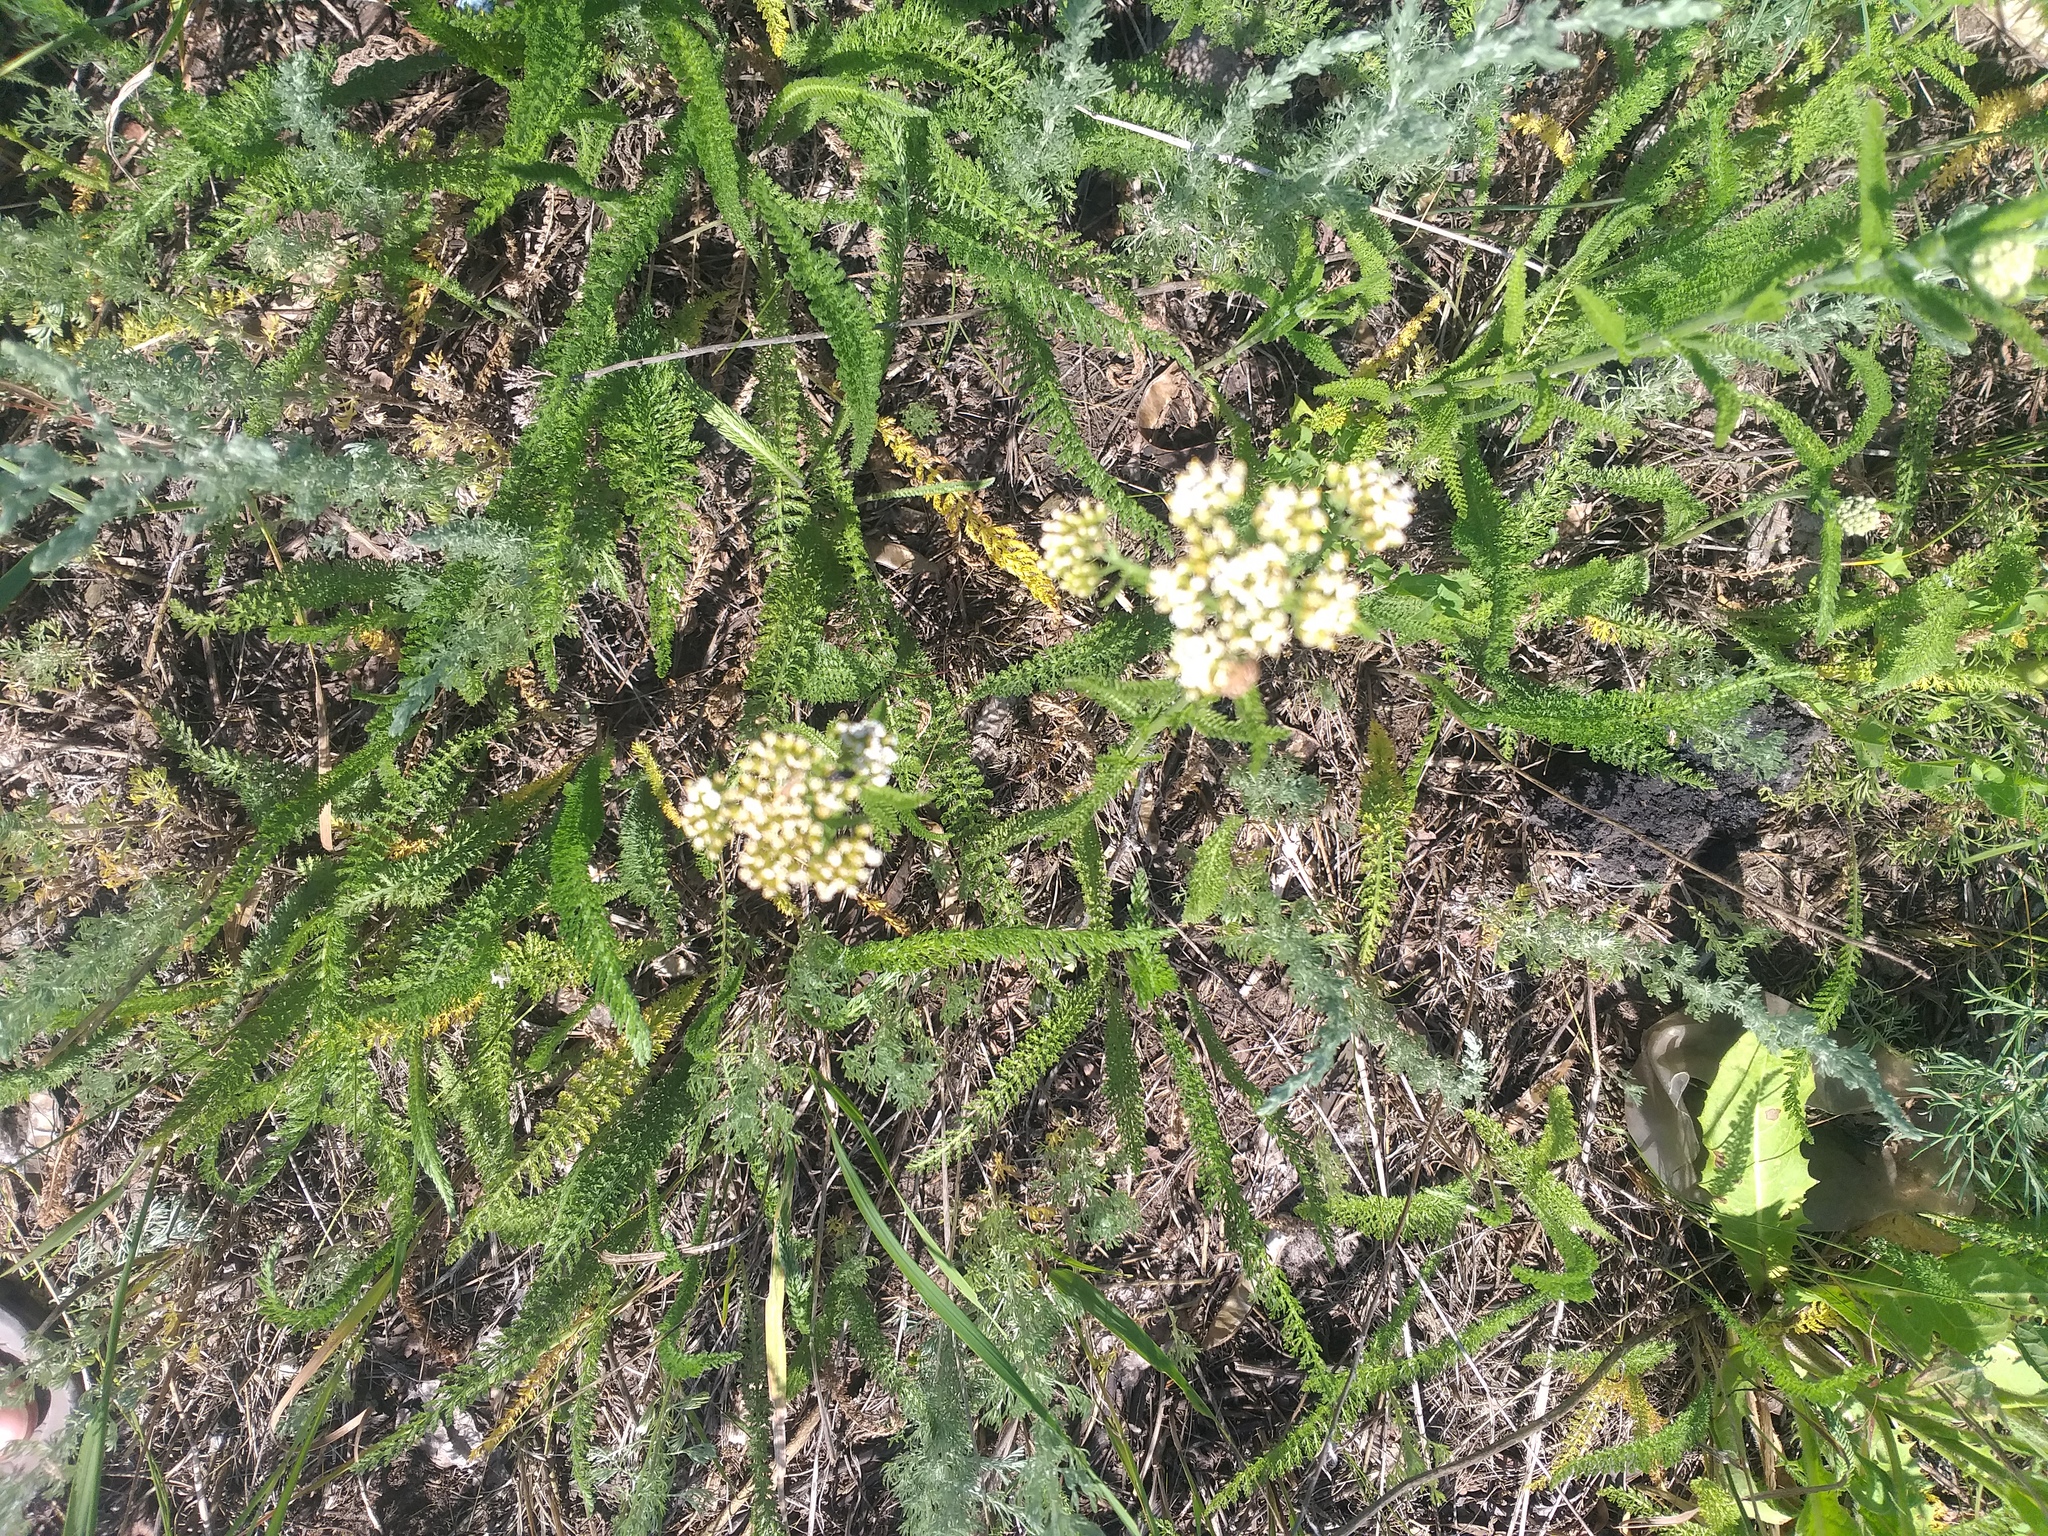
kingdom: Plantae
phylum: Tracheophyta
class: Magnoliopsida
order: Asterales
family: Asteraceae
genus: Achillea
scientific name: Achillea setacea
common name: Bristly yarrow
